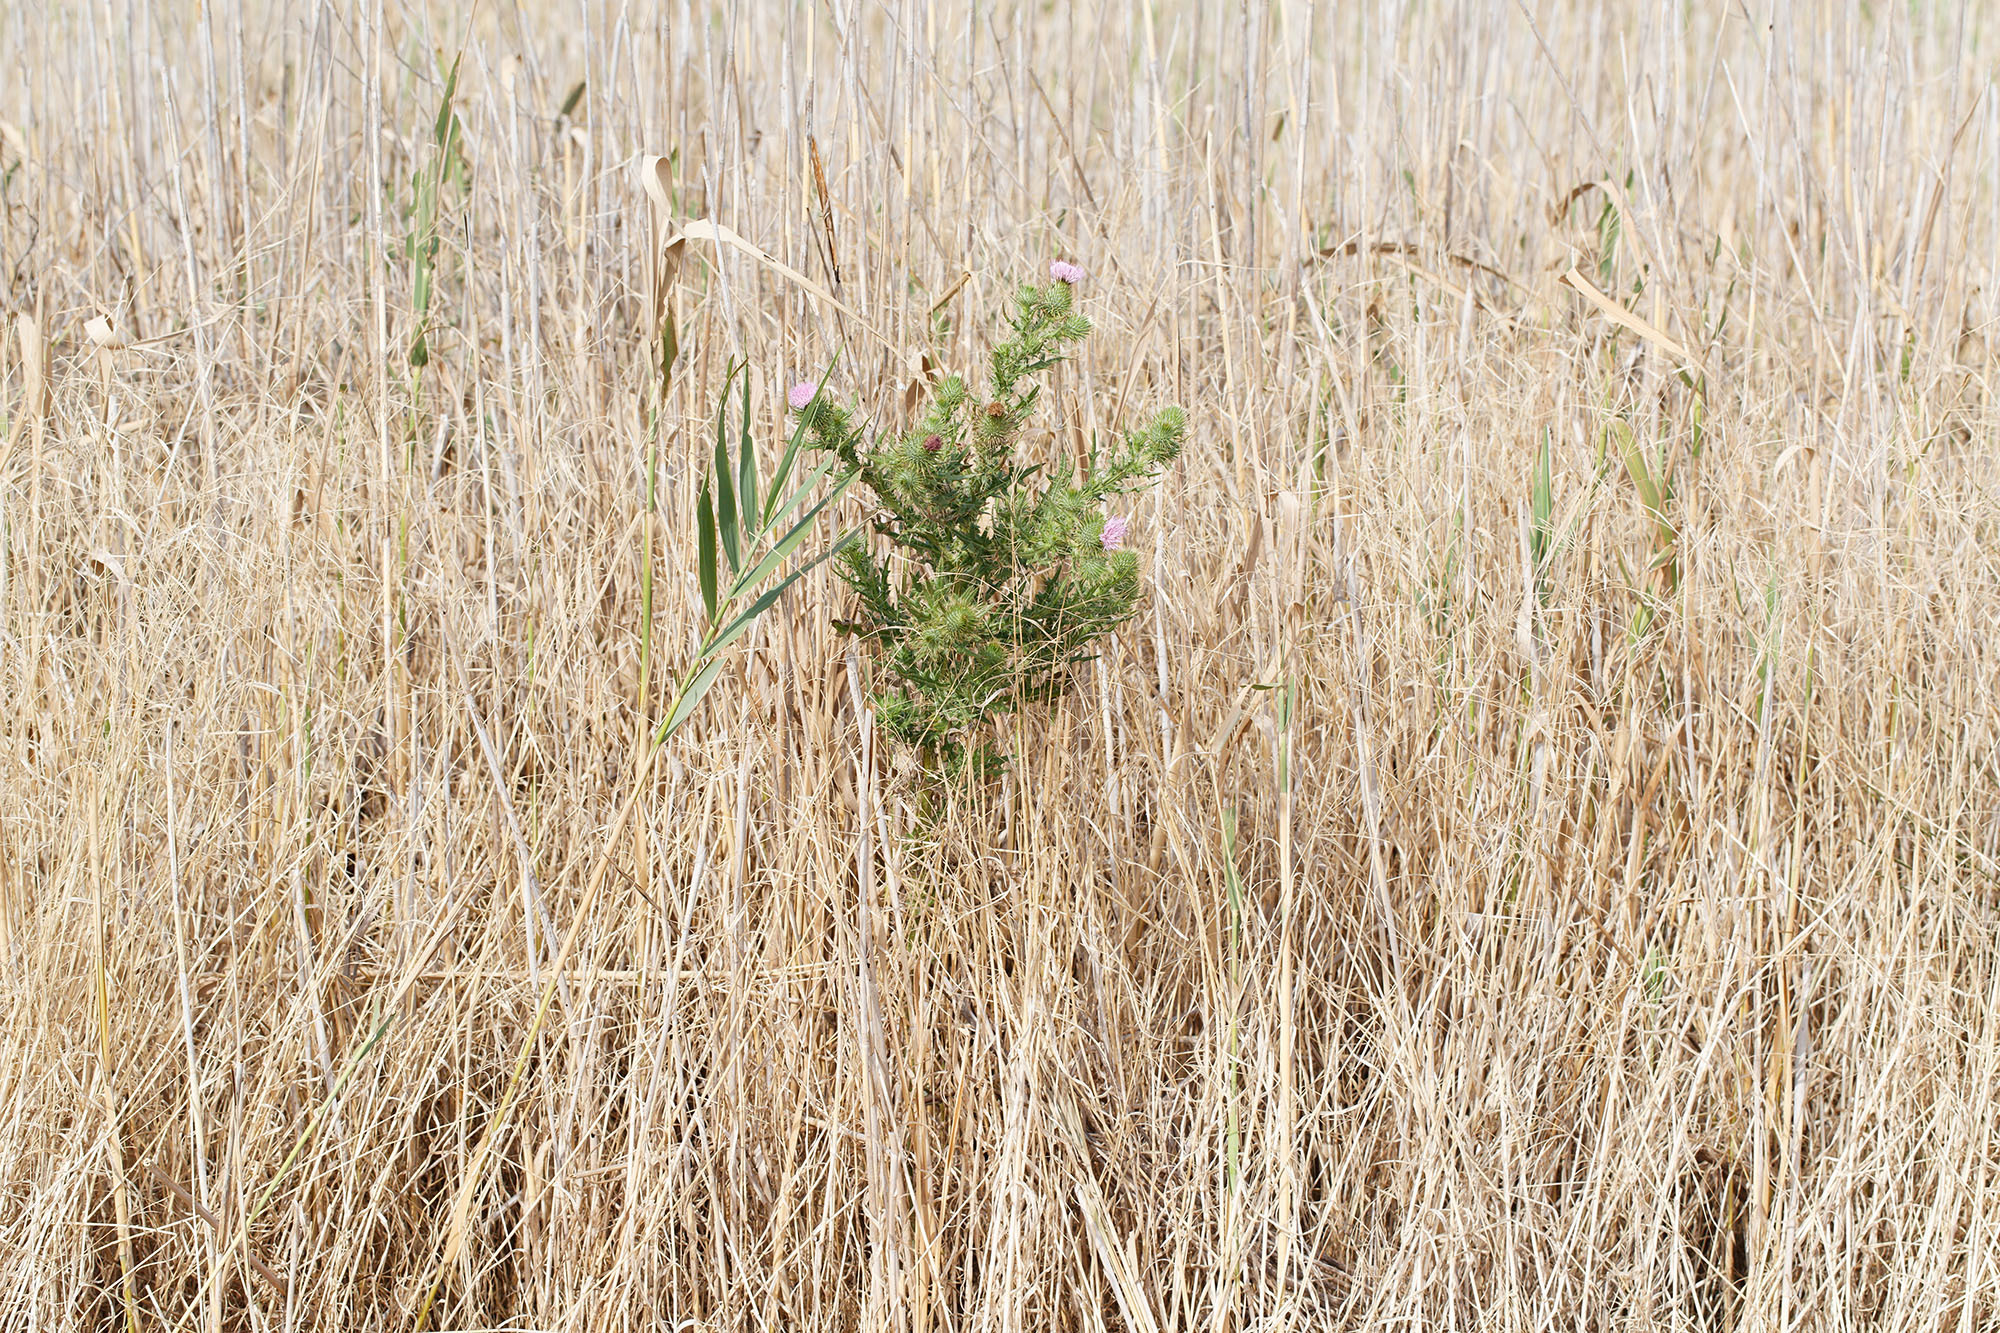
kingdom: Plantae
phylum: Tracheophyta
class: Magnoliopsida
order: Asterales
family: Asteraceae
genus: Cirsium
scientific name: Cirsium vulgare
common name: Bull thistle
